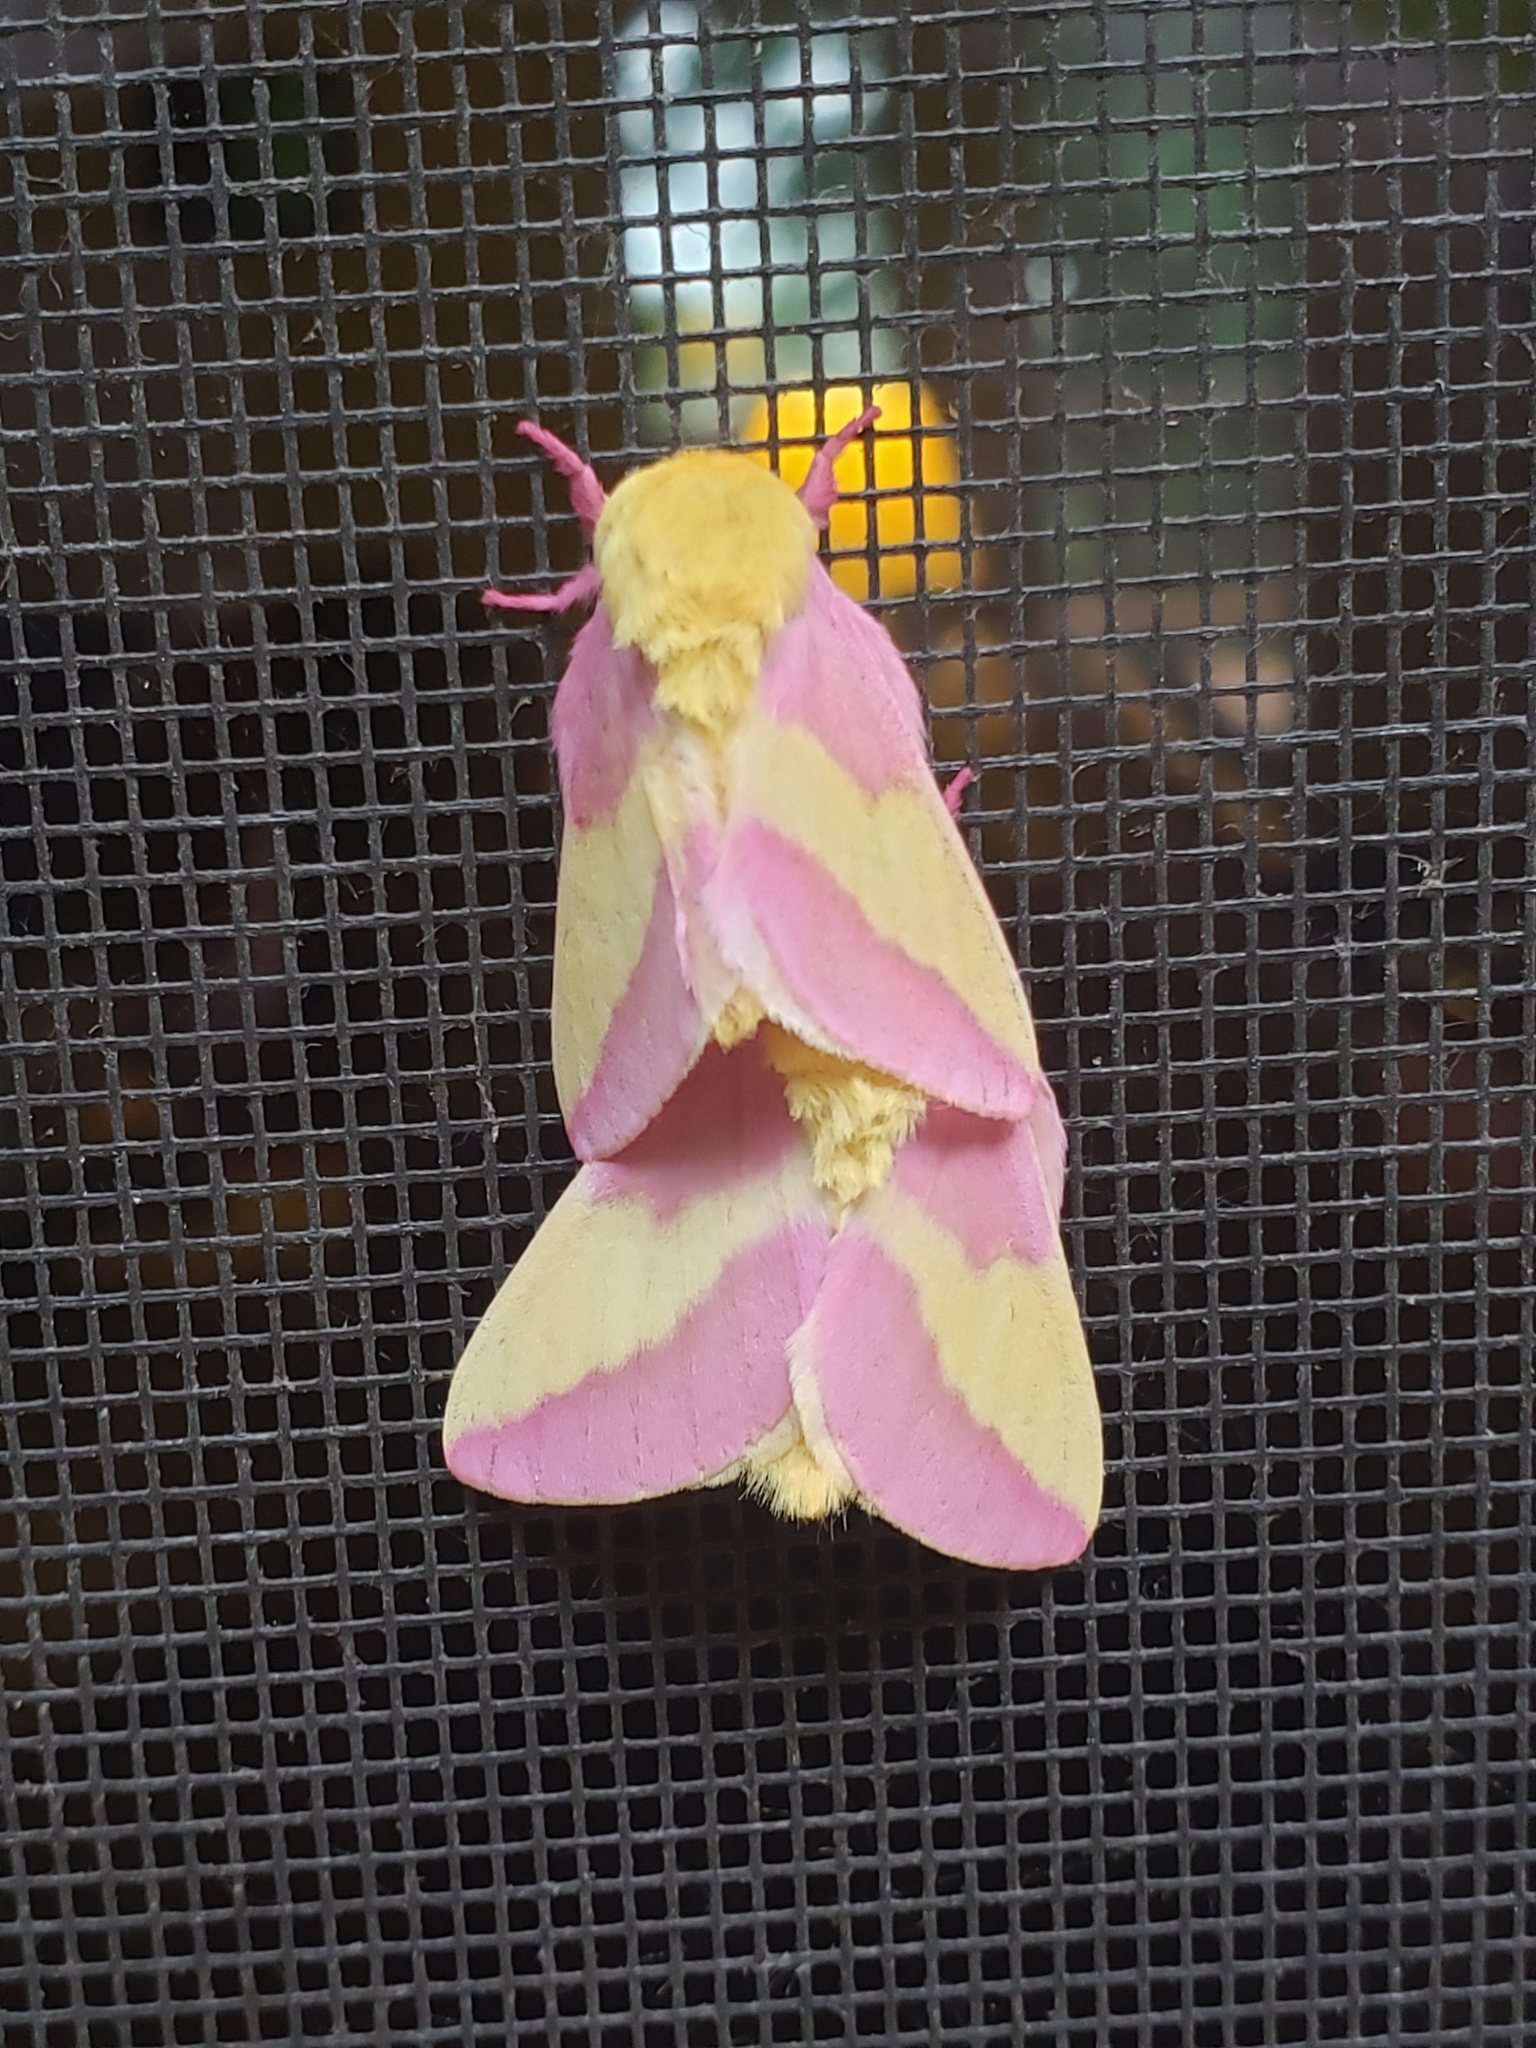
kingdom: Animalia
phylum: Arthropoda
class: Insecta
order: Lepidoptera
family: Saturniidae
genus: Dryocampa
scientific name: Dryocampa rubicunda
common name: Rosy maple moth
